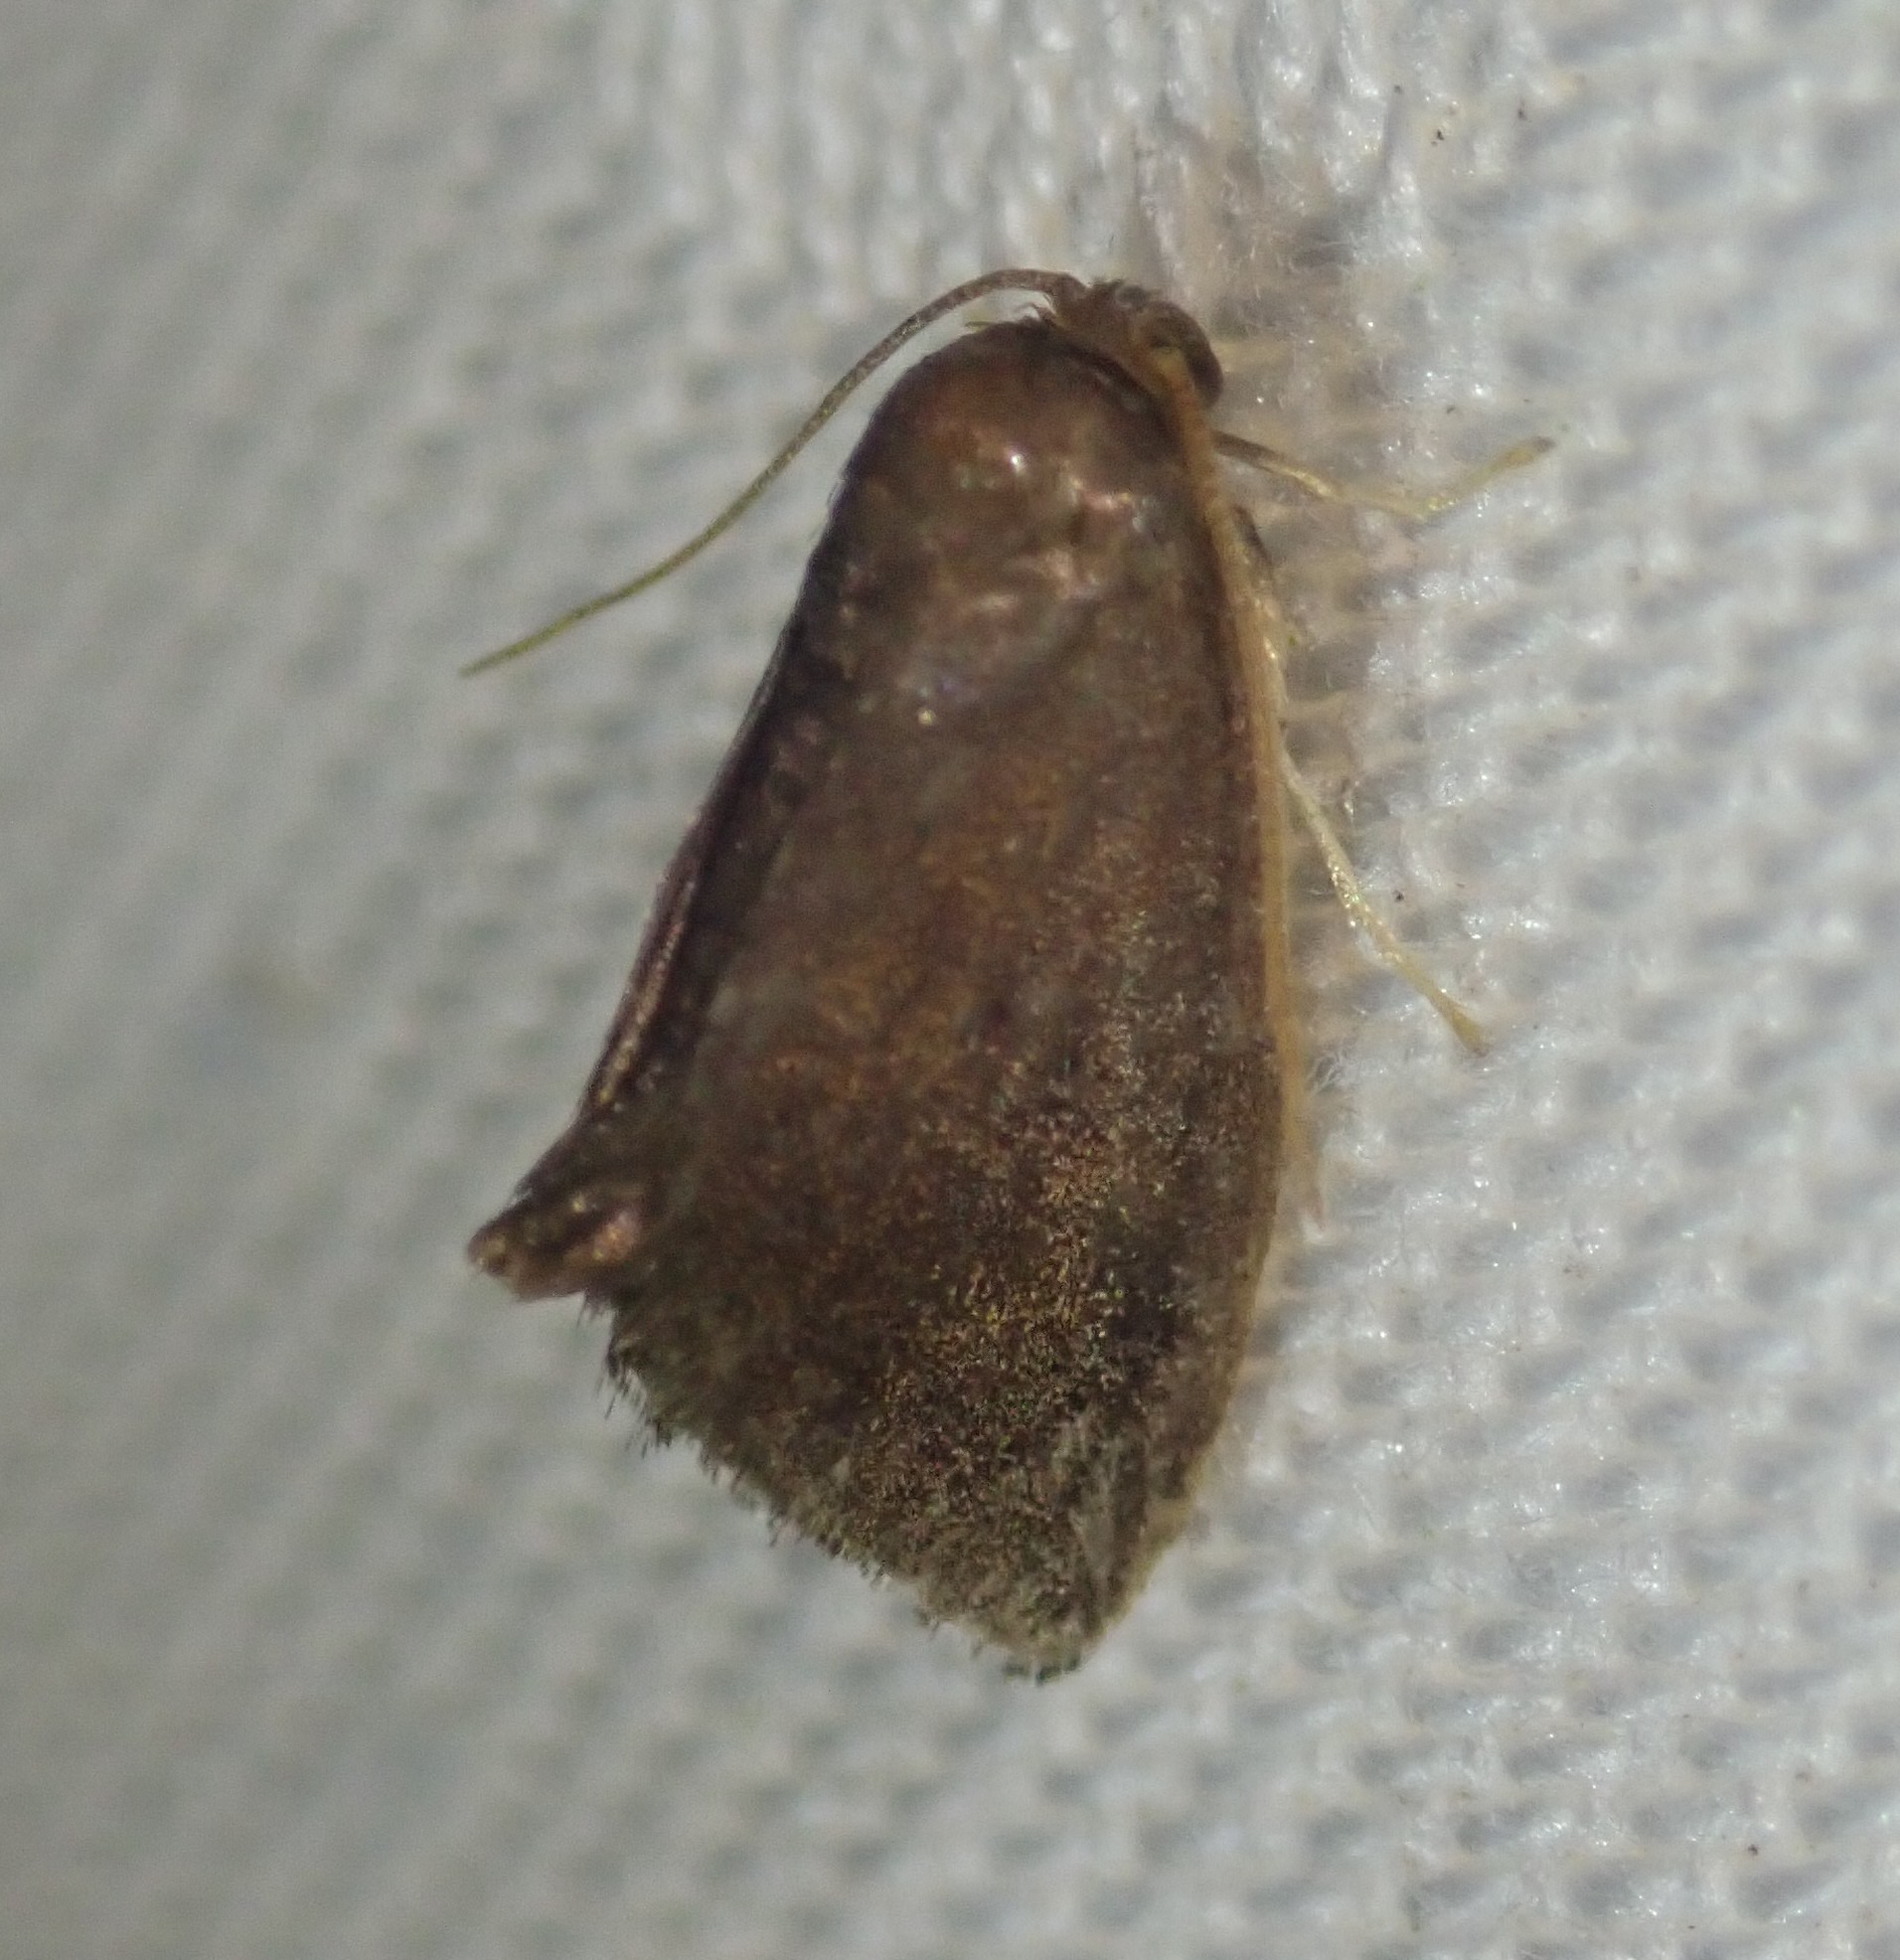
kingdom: Animalia
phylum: Arthropoda
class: Insecta
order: Lepidoptera
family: Limacodidae
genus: Heterogenea
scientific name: Heterogenea asella
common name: Triangle
